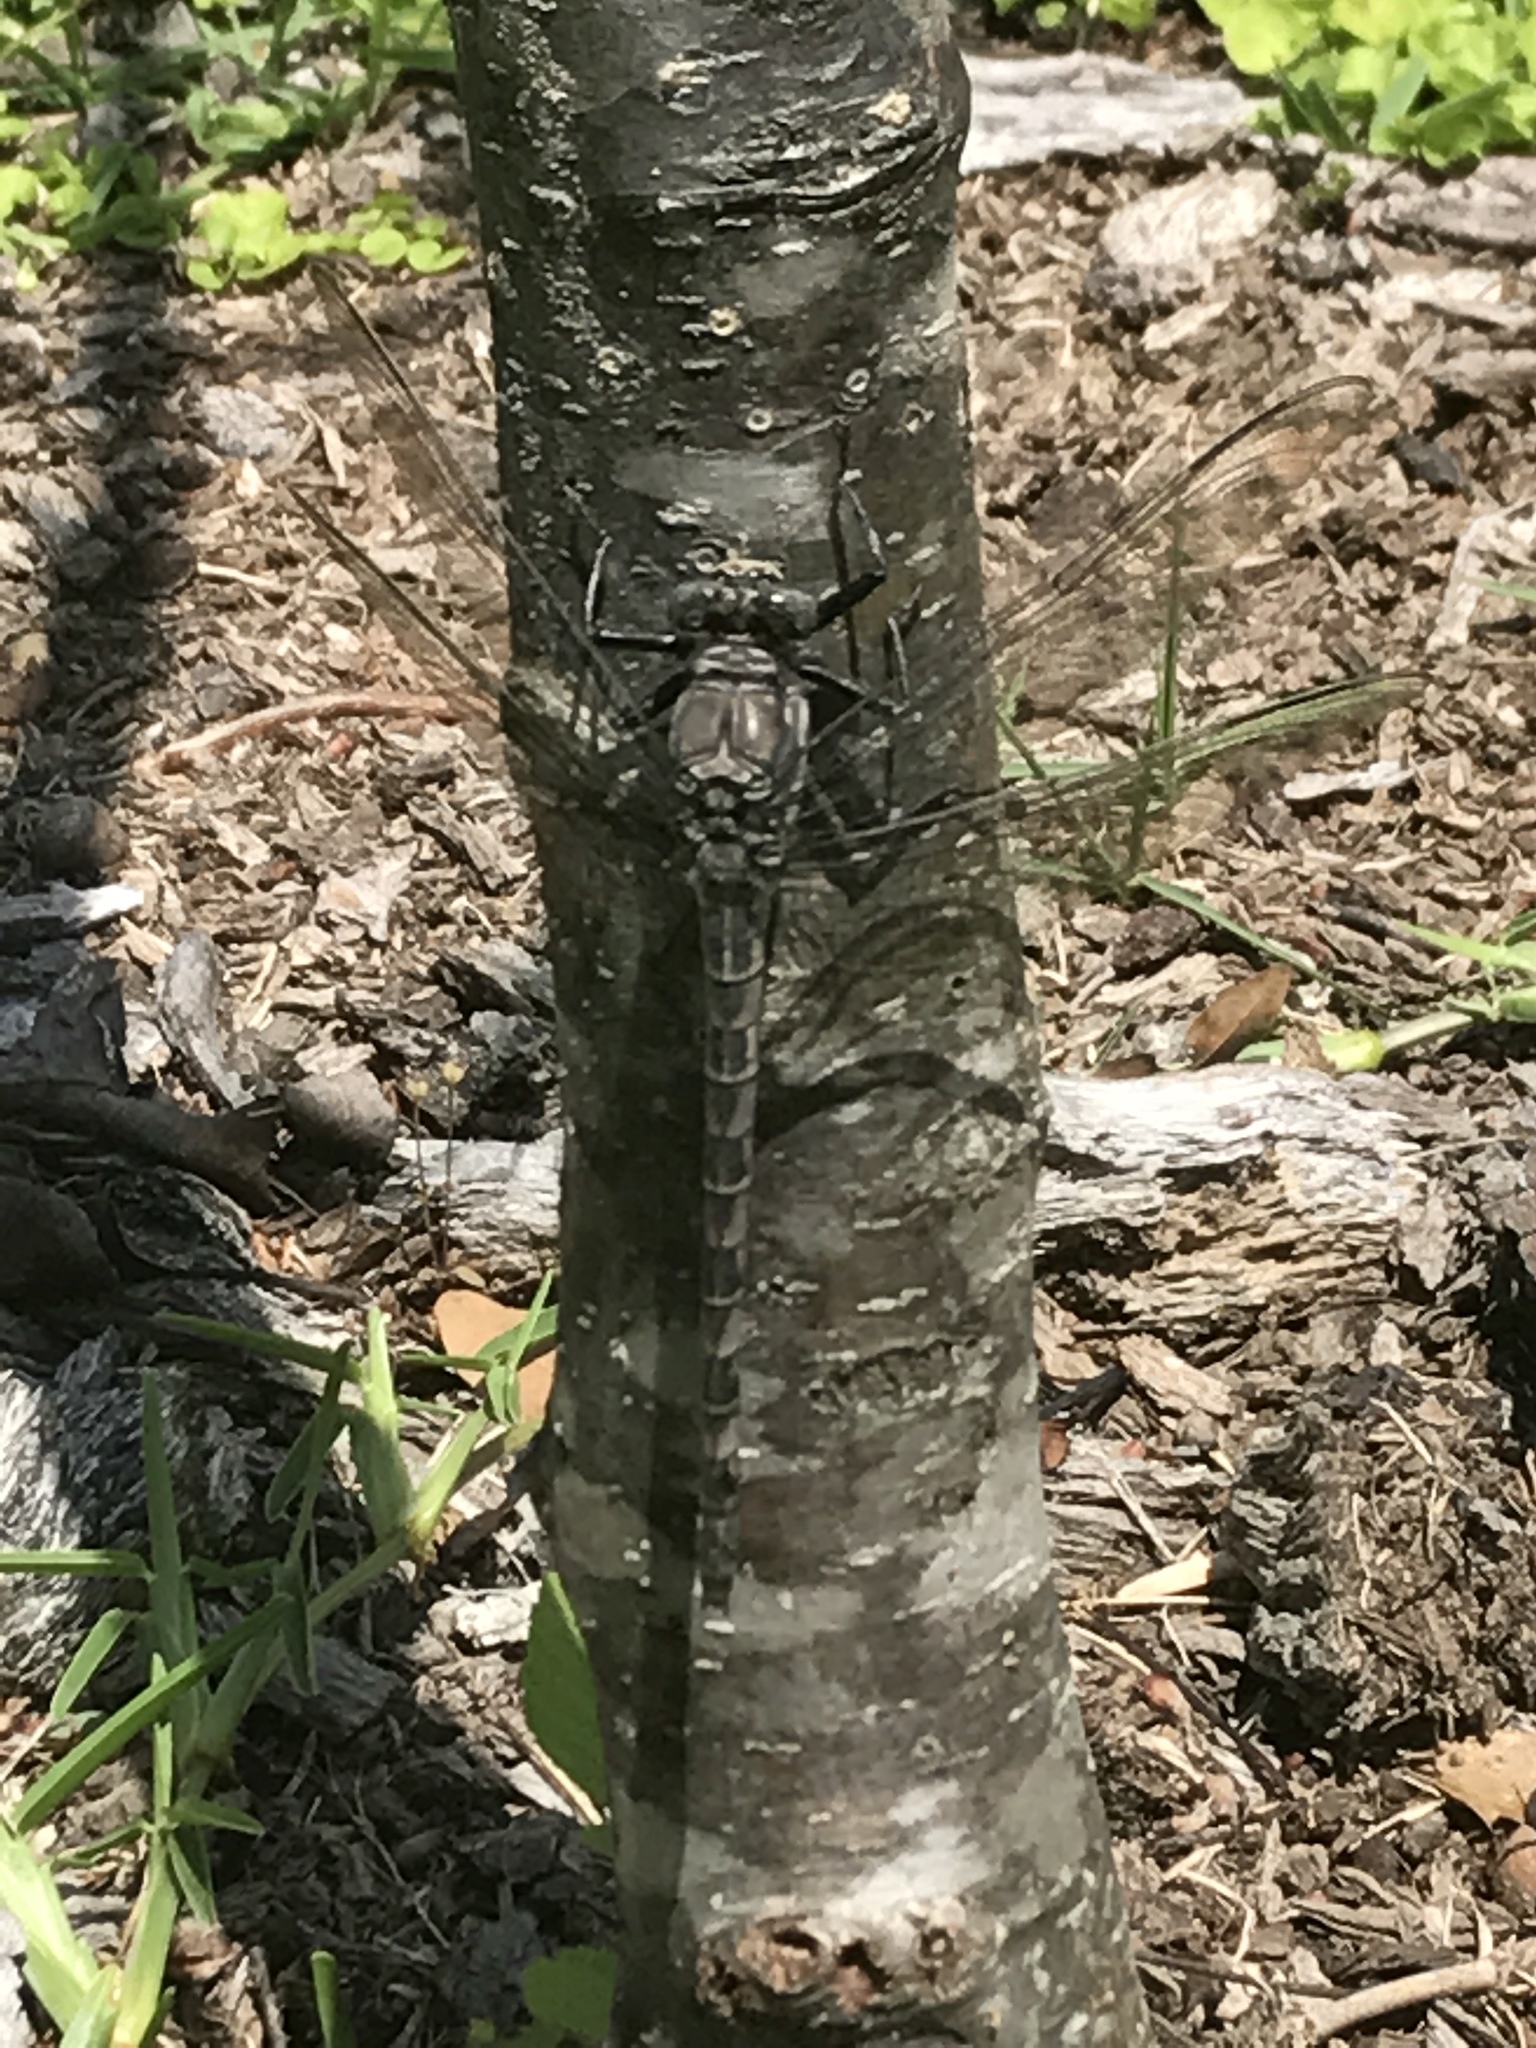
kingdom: Animalia
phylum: Arthropoda
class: Insecta
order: Odonata
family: Petaluridae
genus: Tachopteryx
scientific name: Tachopteryx thoreyi
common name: Gray petaltail
